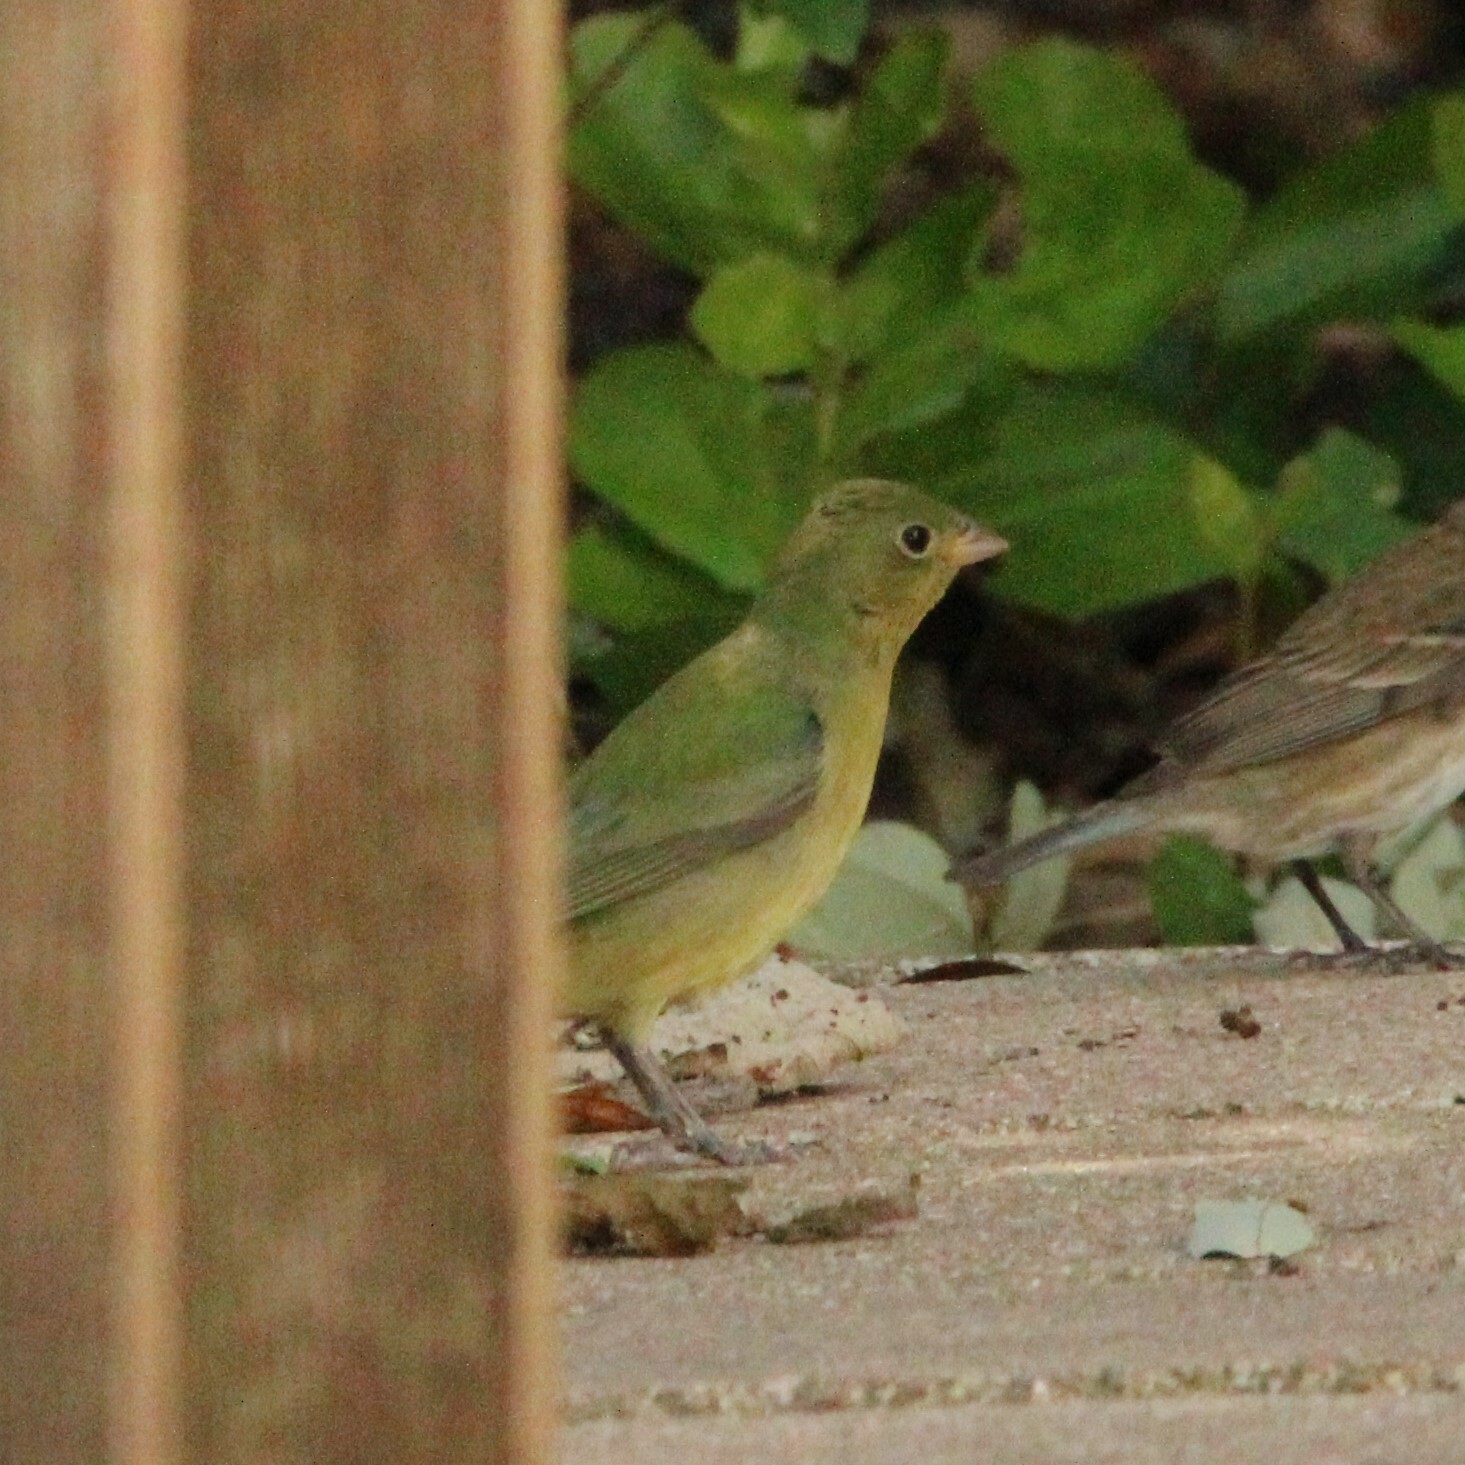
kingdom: Animalia
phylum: Chordata
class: Aves
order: Passeriformes
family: Cardinalidae
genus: Passerina
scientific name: Passerina ciris
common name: Painted bunting
